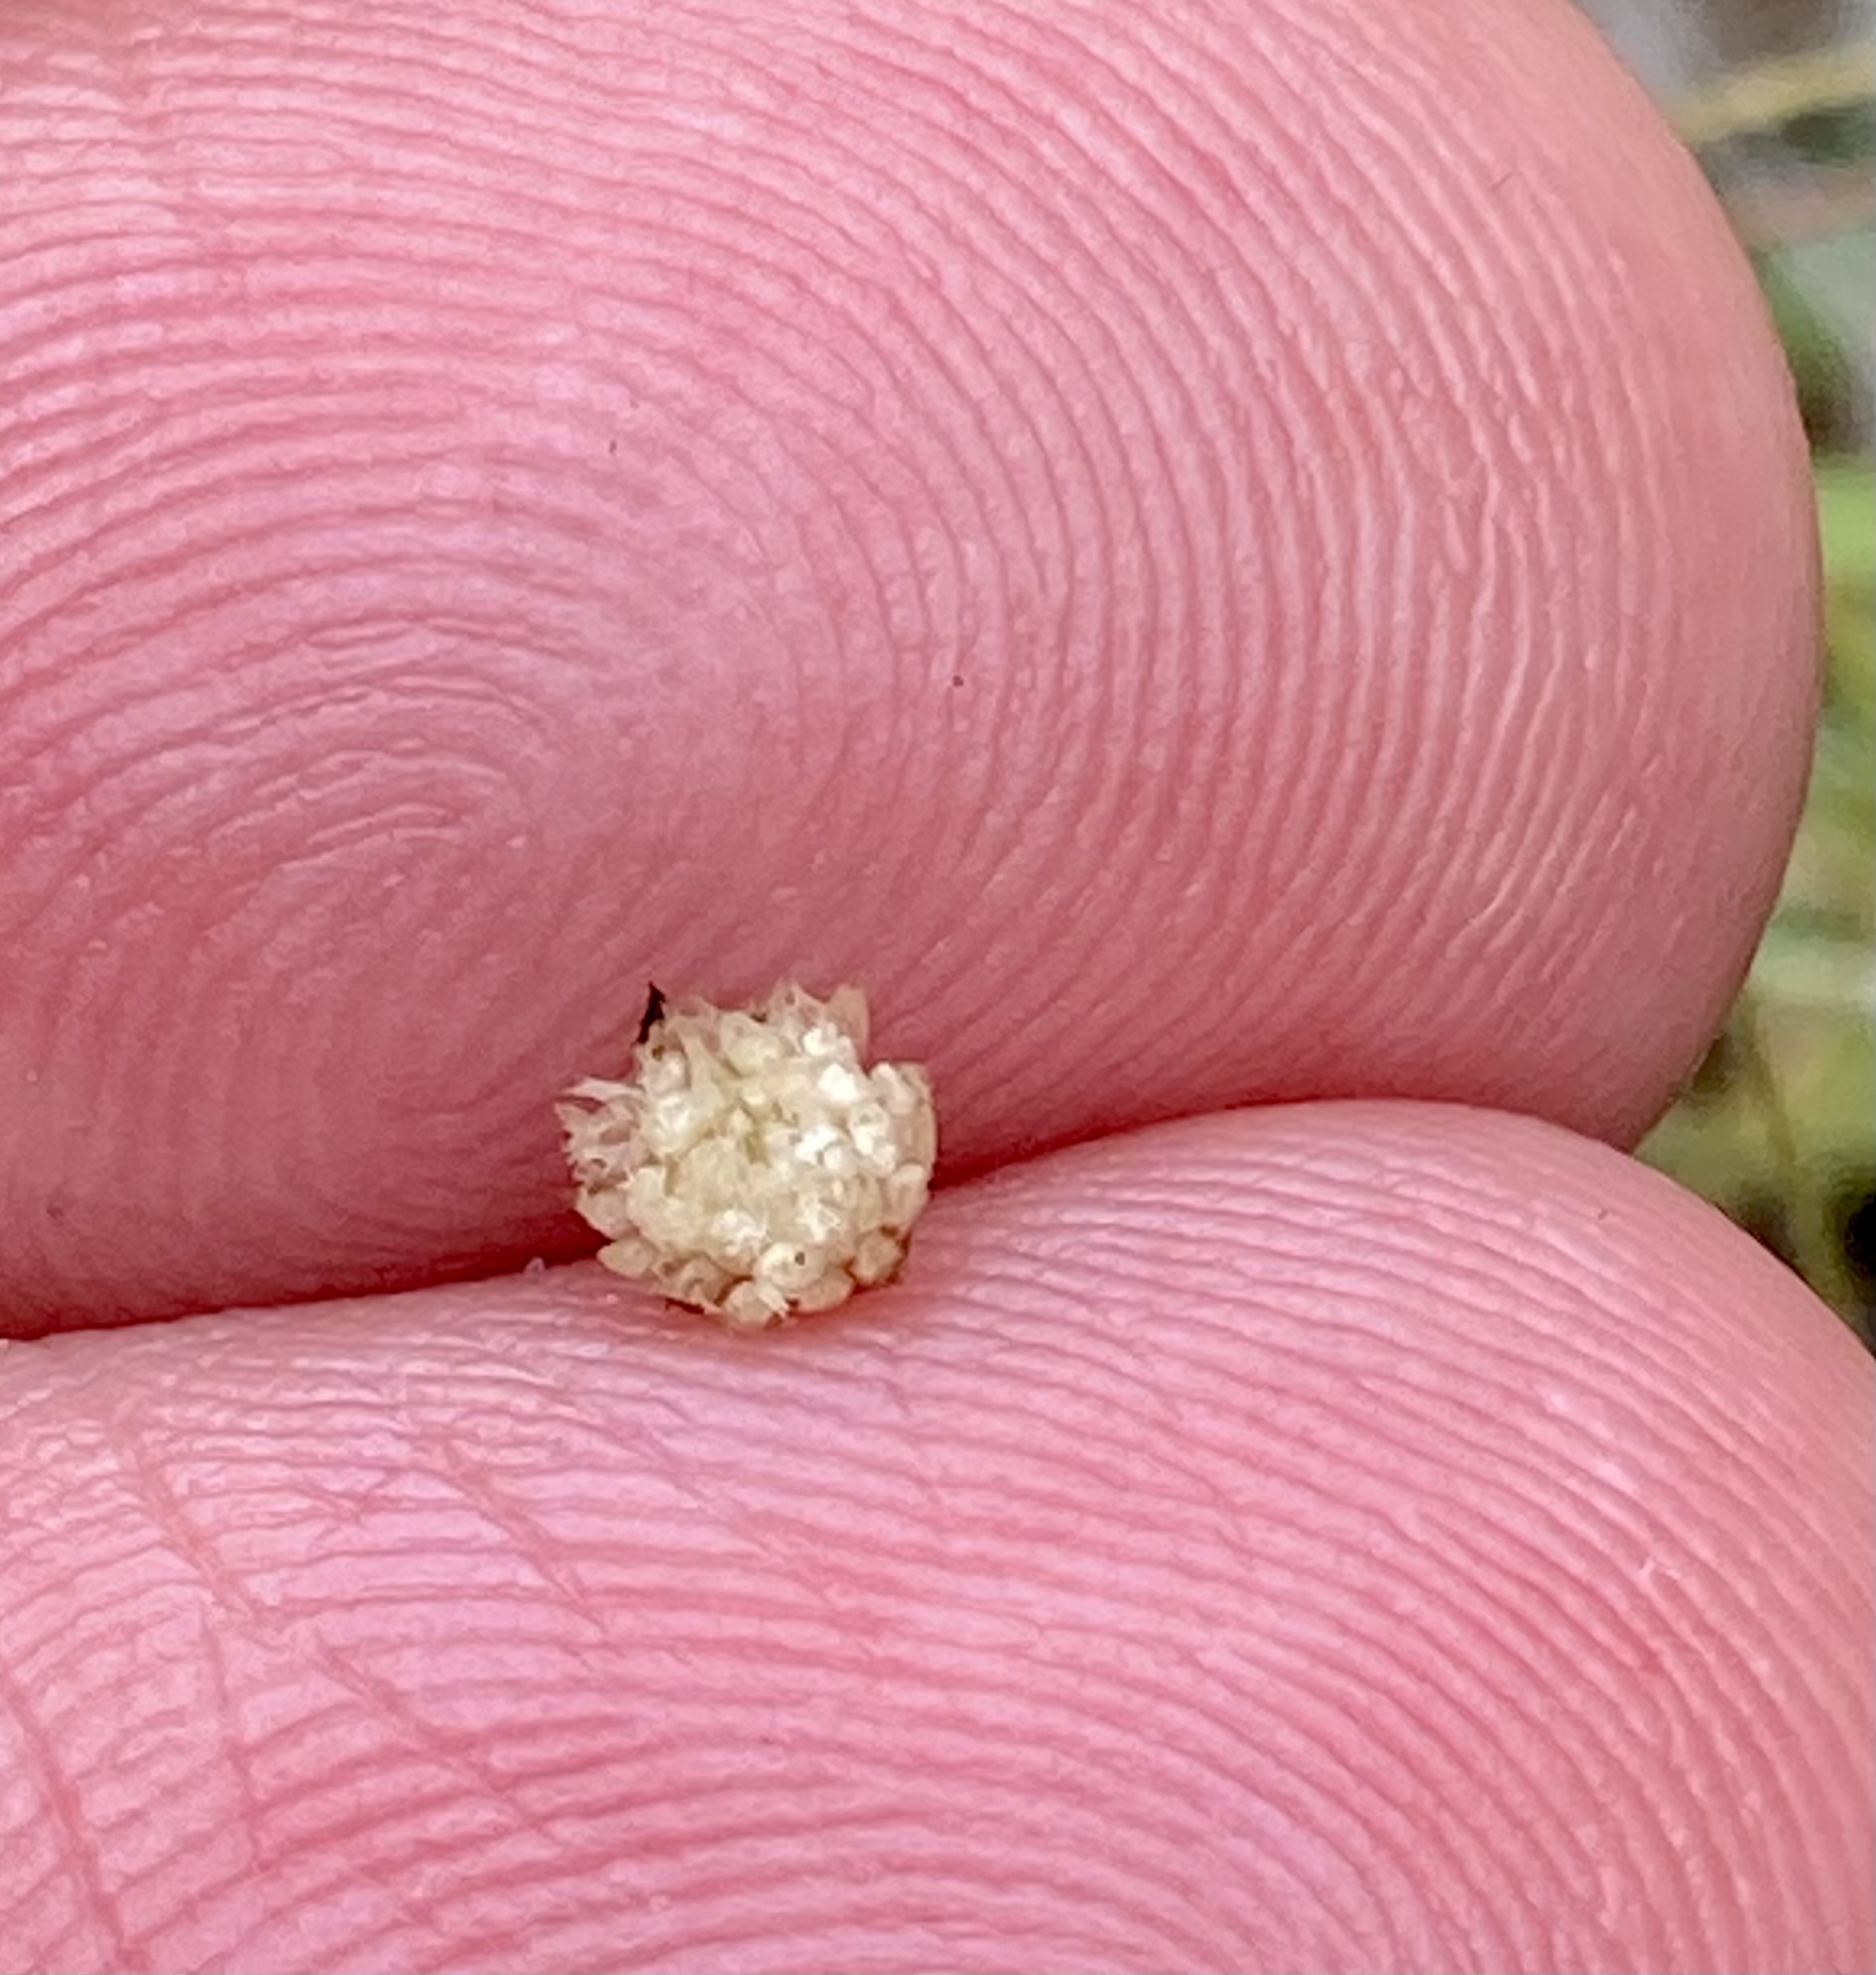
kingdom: Plantae
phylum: Tracheophyta
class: Liliopsida
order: Poales
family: Eriocaulaceae
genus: Syngonanthus
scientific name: Syngonanthus caulescens
